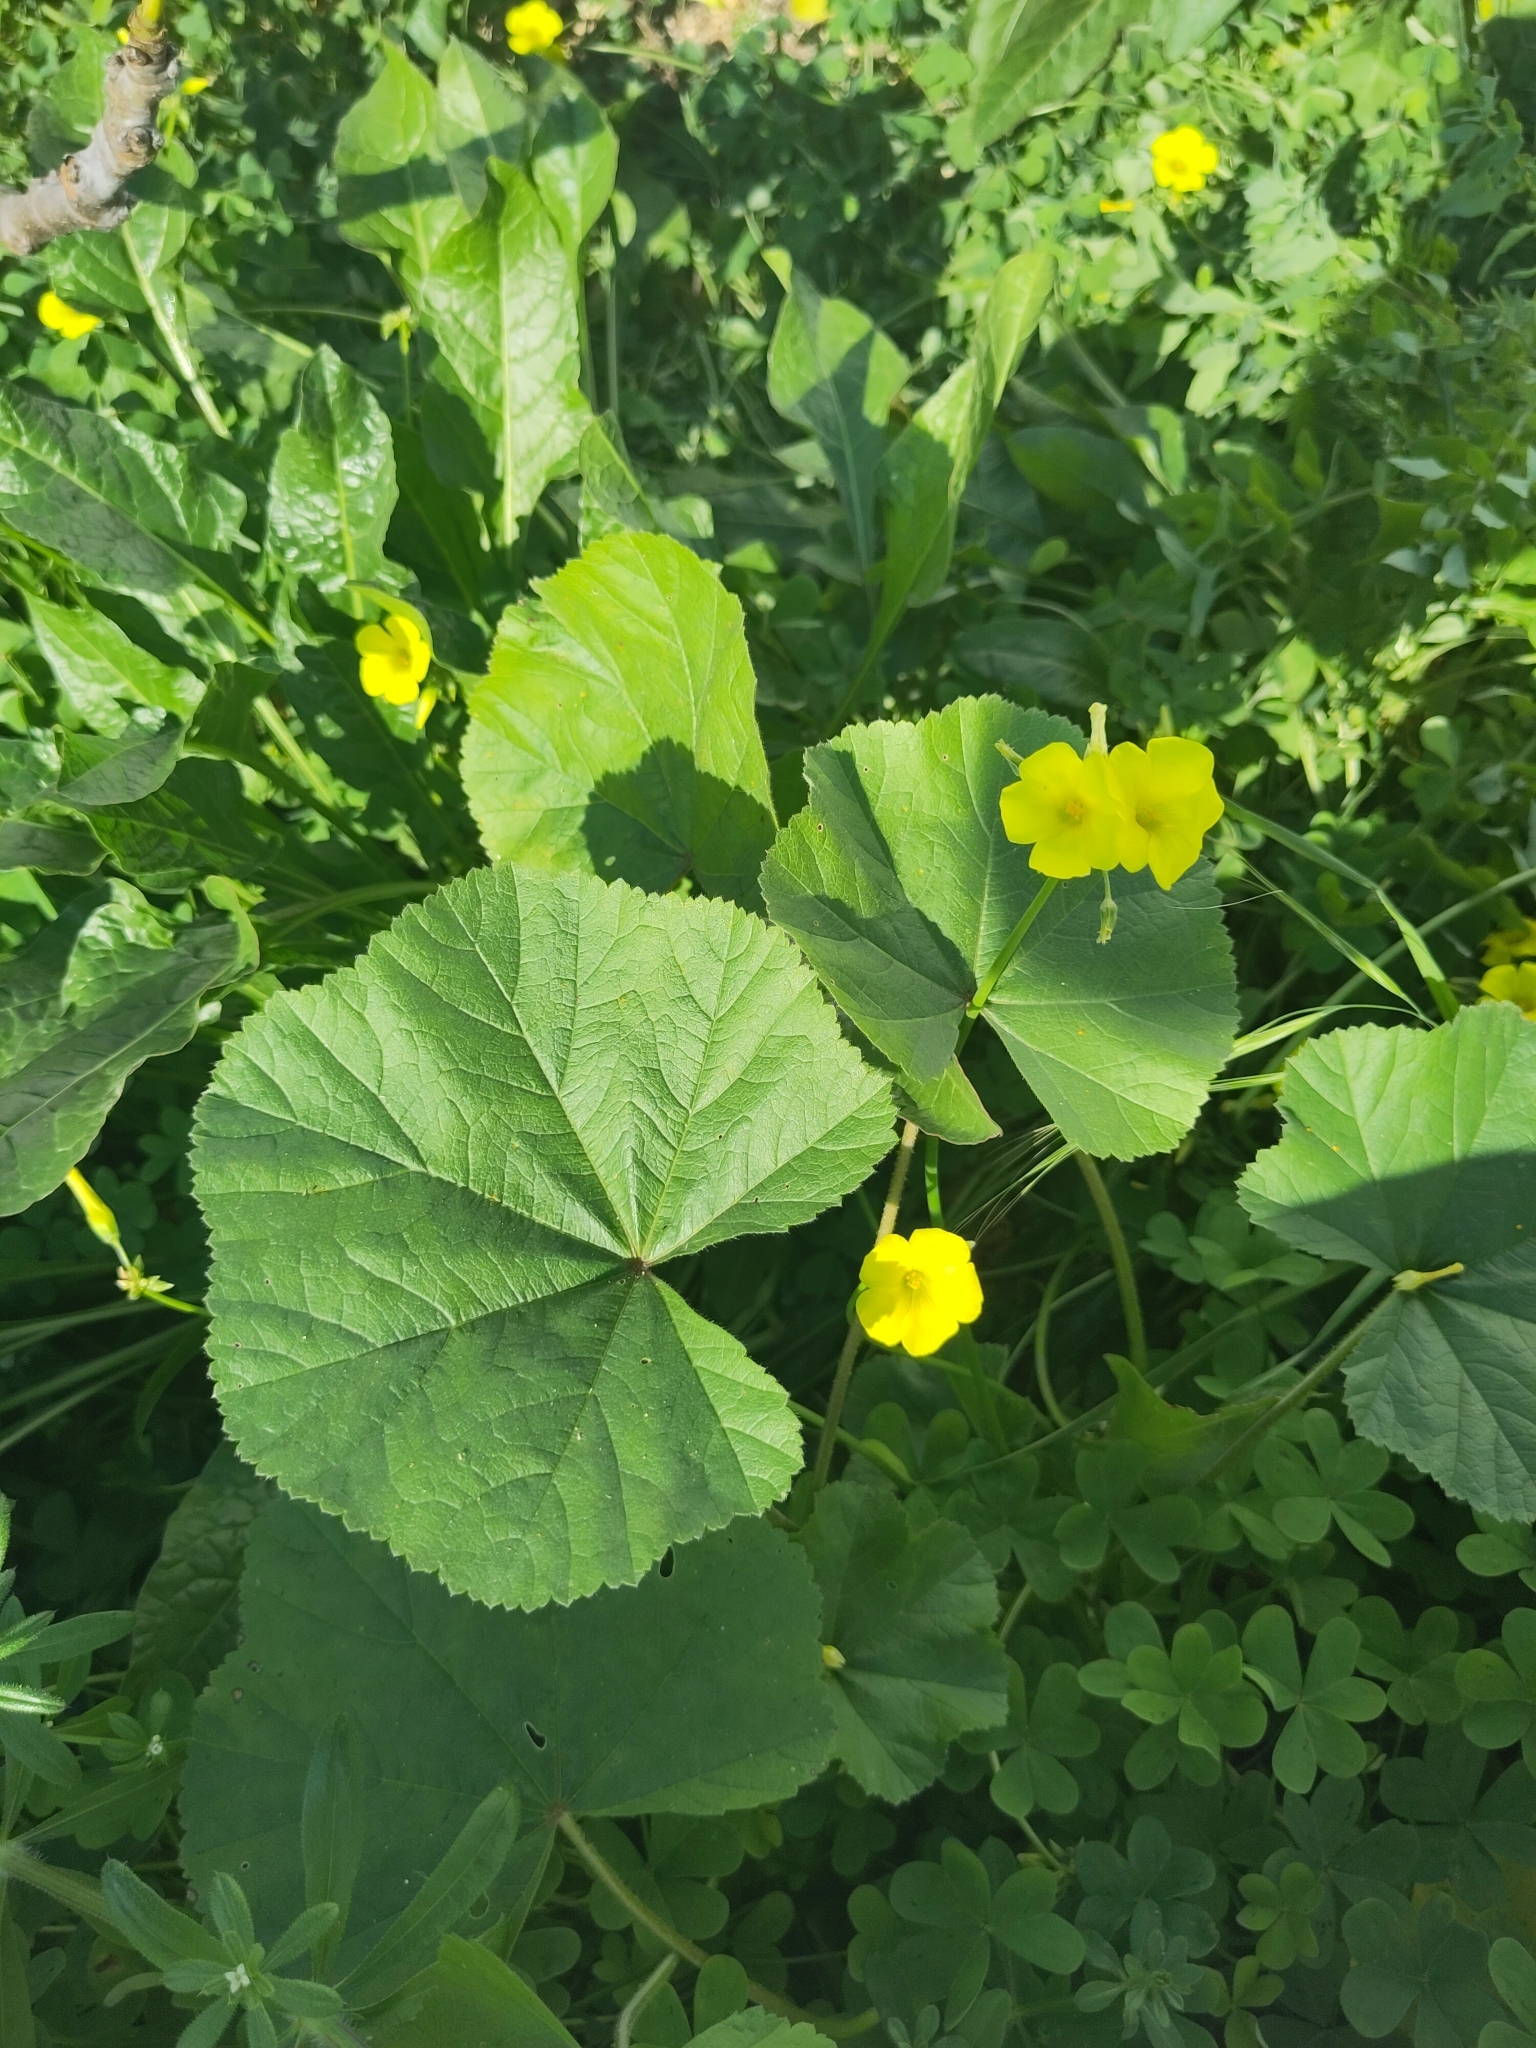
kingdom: Plantae
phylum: Tracheophyta
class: Magnoliopsida
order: Oxalidales
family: Oxalidaceae
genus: Oxalis
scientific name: Oxalis pes-caprae
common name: Bermuda-buttercup
